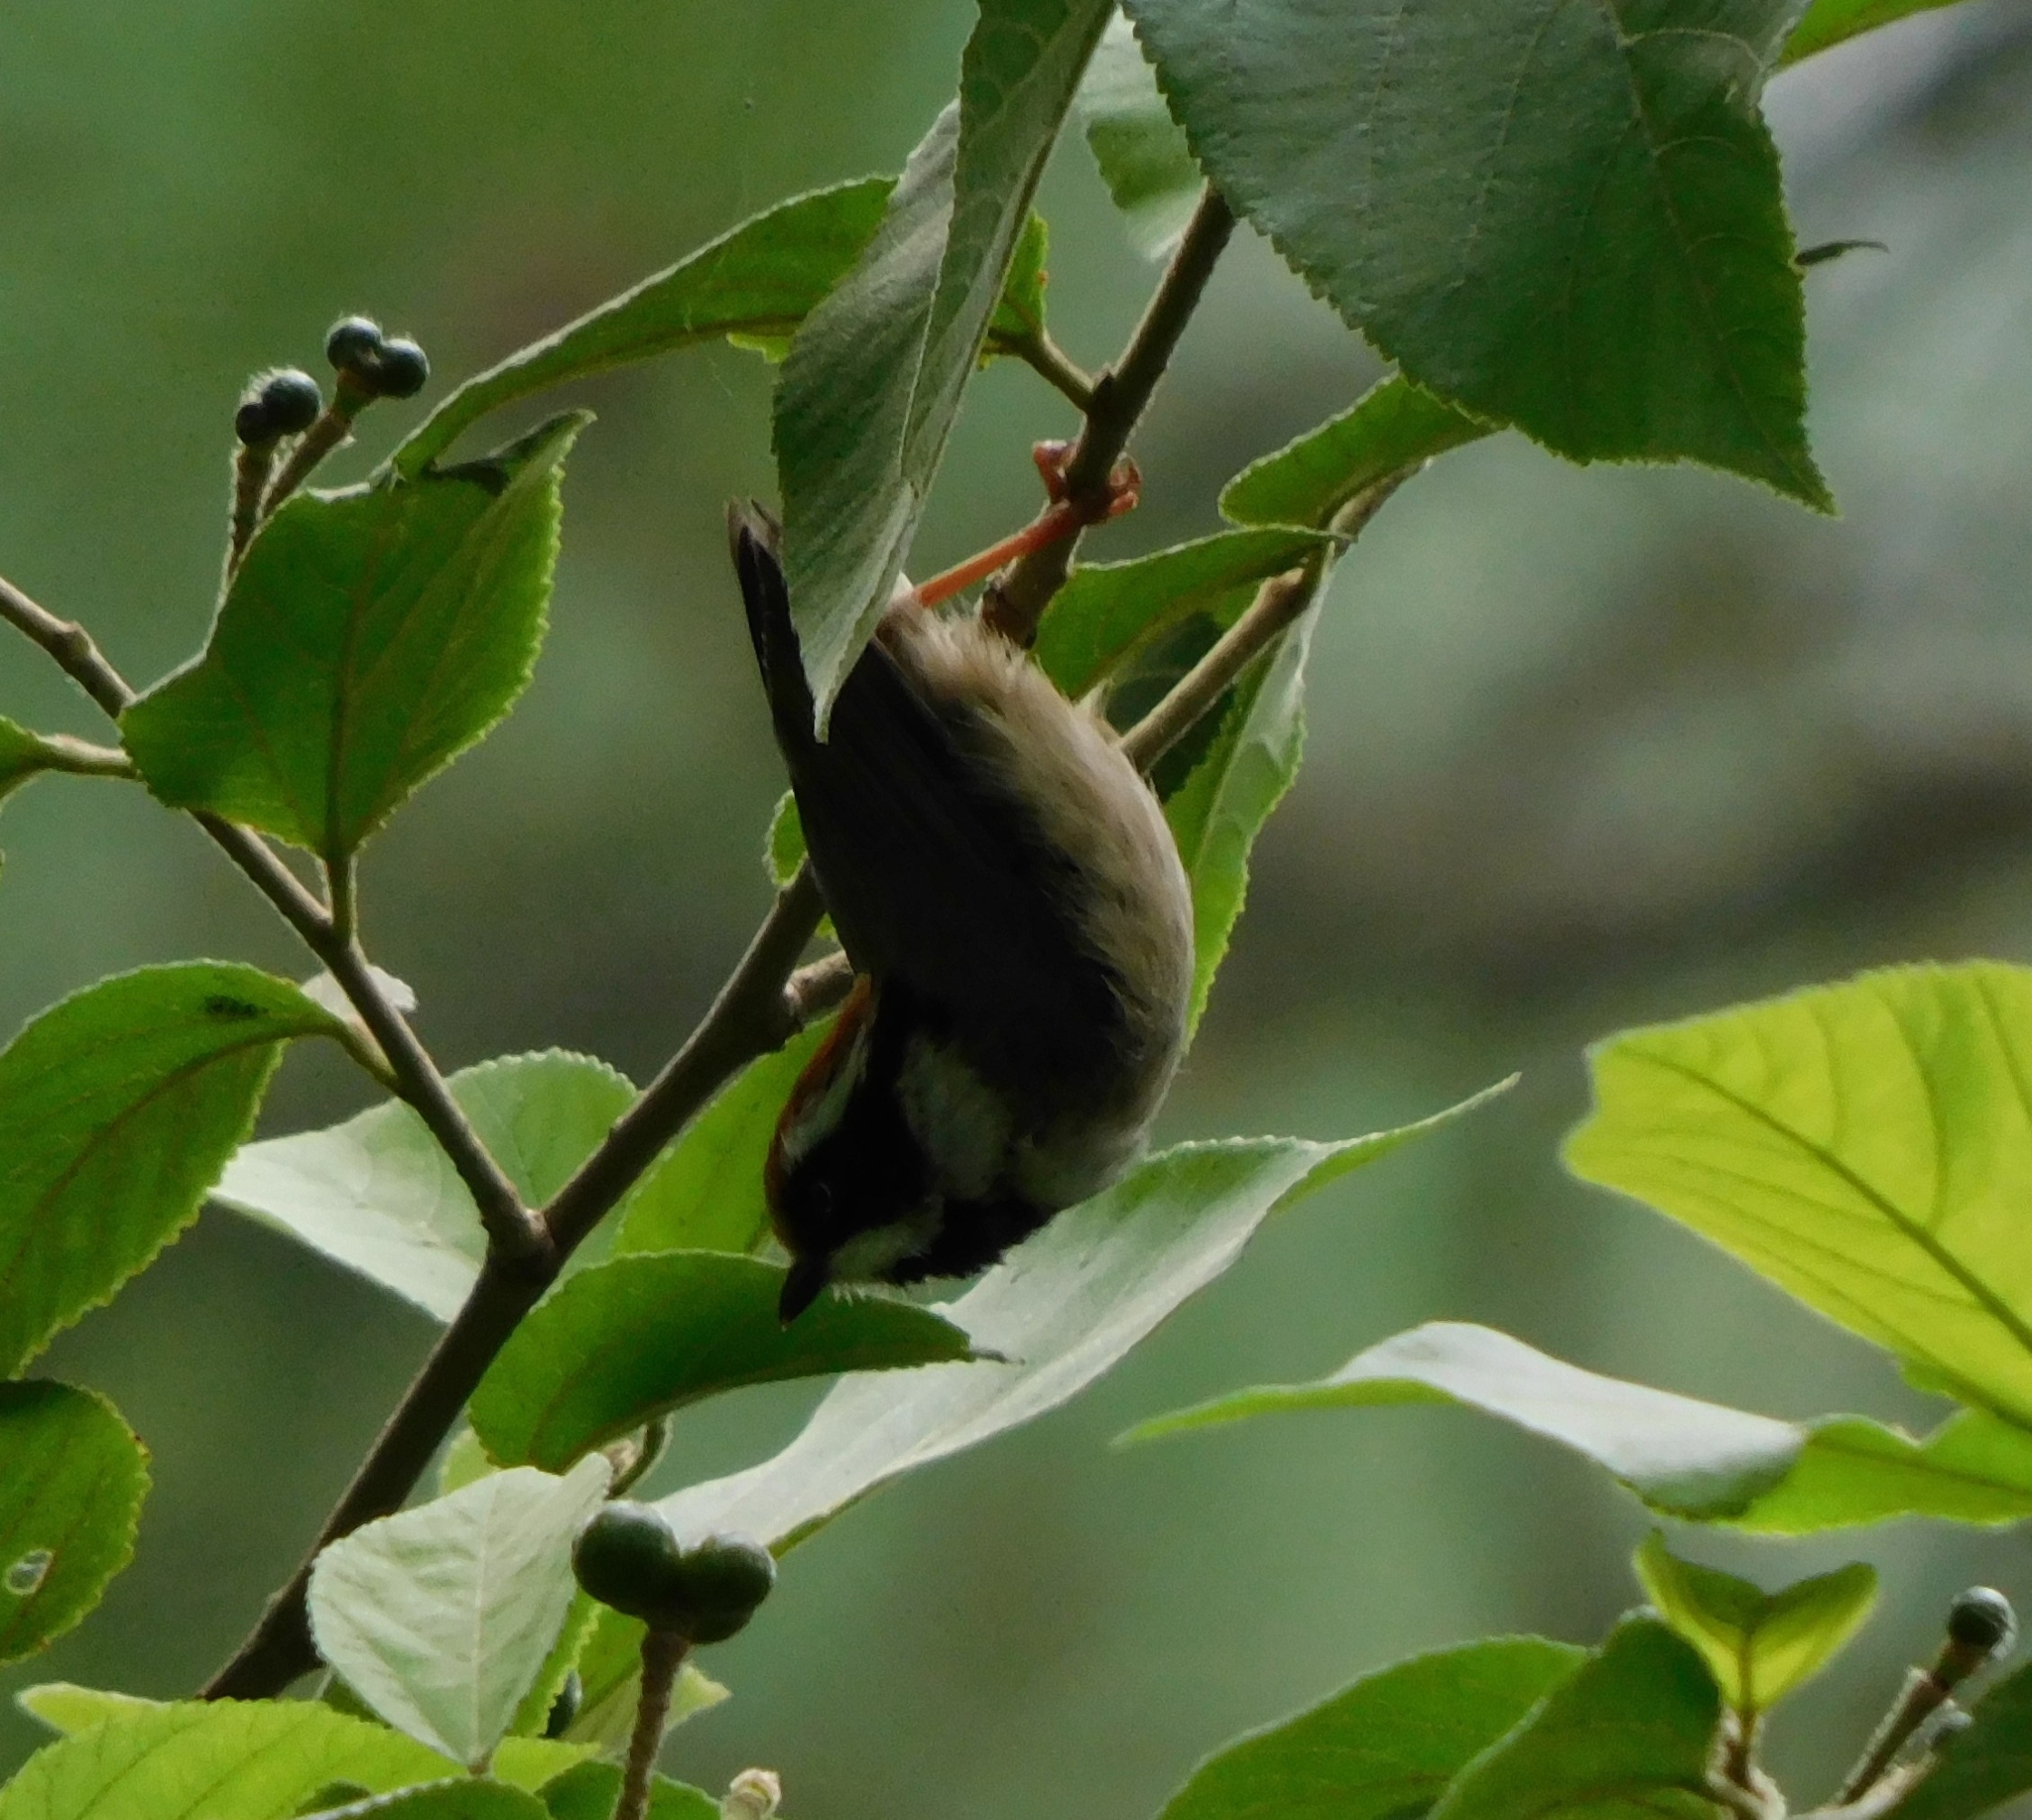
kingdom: Animalia
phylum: Chordata
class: Aves
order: Passeriformes
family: Aegithalidae
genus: Aegithalos
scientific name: Aegithalos concinnus
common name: Black-throated bushtit
